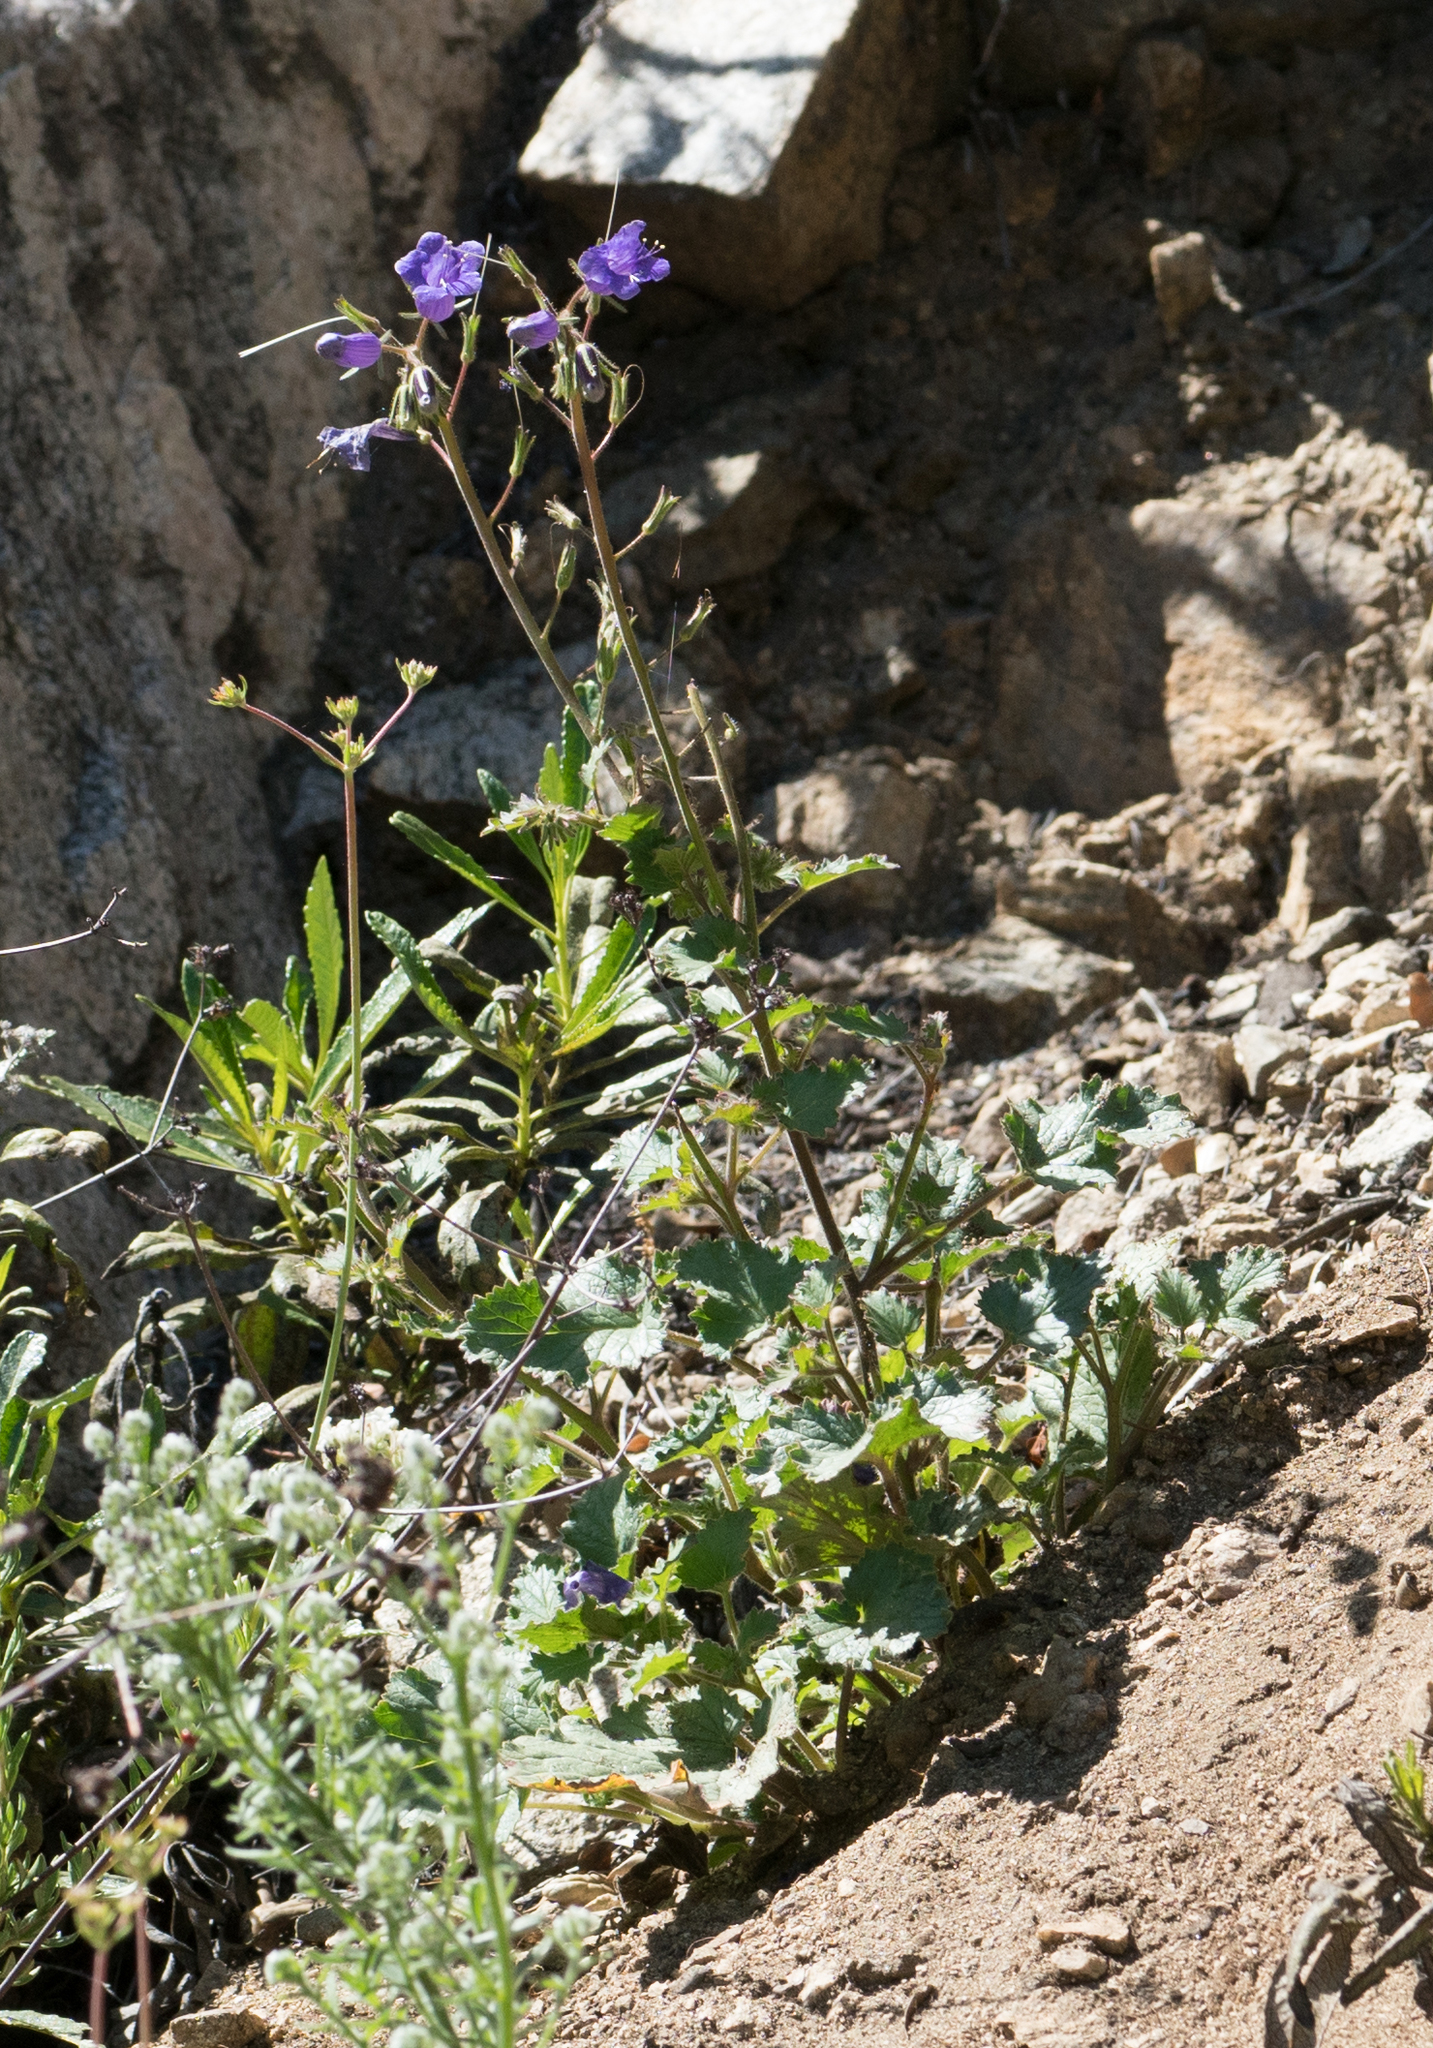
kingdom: Plantae
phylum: Tracheophyta
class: Magnoliopsida
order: Boraginales
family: Hydrophyllaceae
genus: Phacelia
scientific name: Phacelia minor
